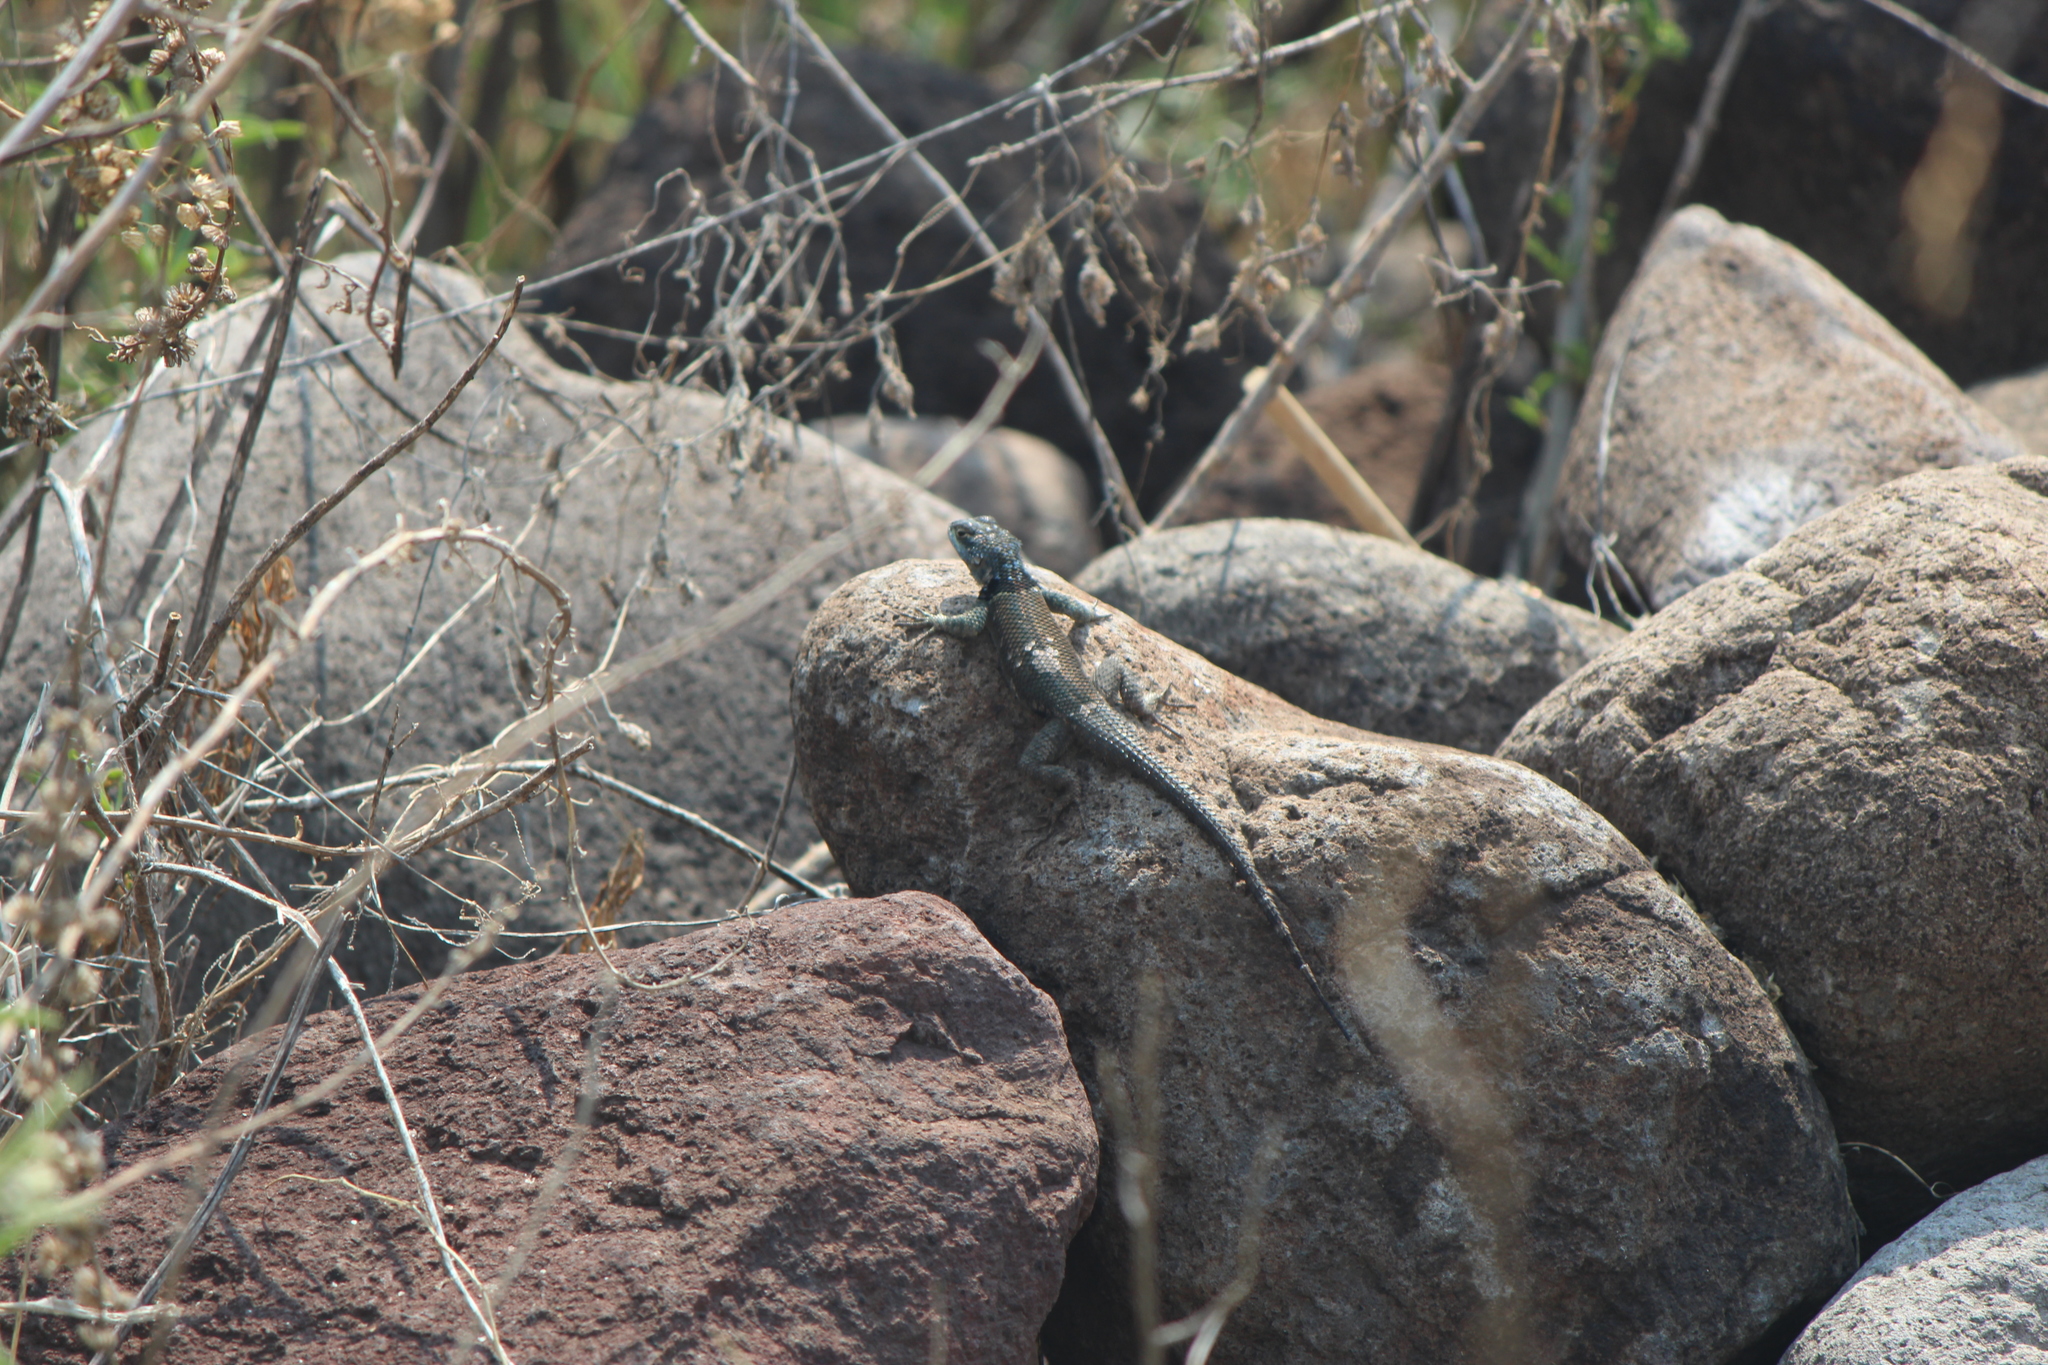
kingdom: Animalia
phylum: Chordata
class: Squamata
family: Phrynosomatidae
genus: Sceloporus
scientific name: Sceloporus minor
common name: Minor lizard
